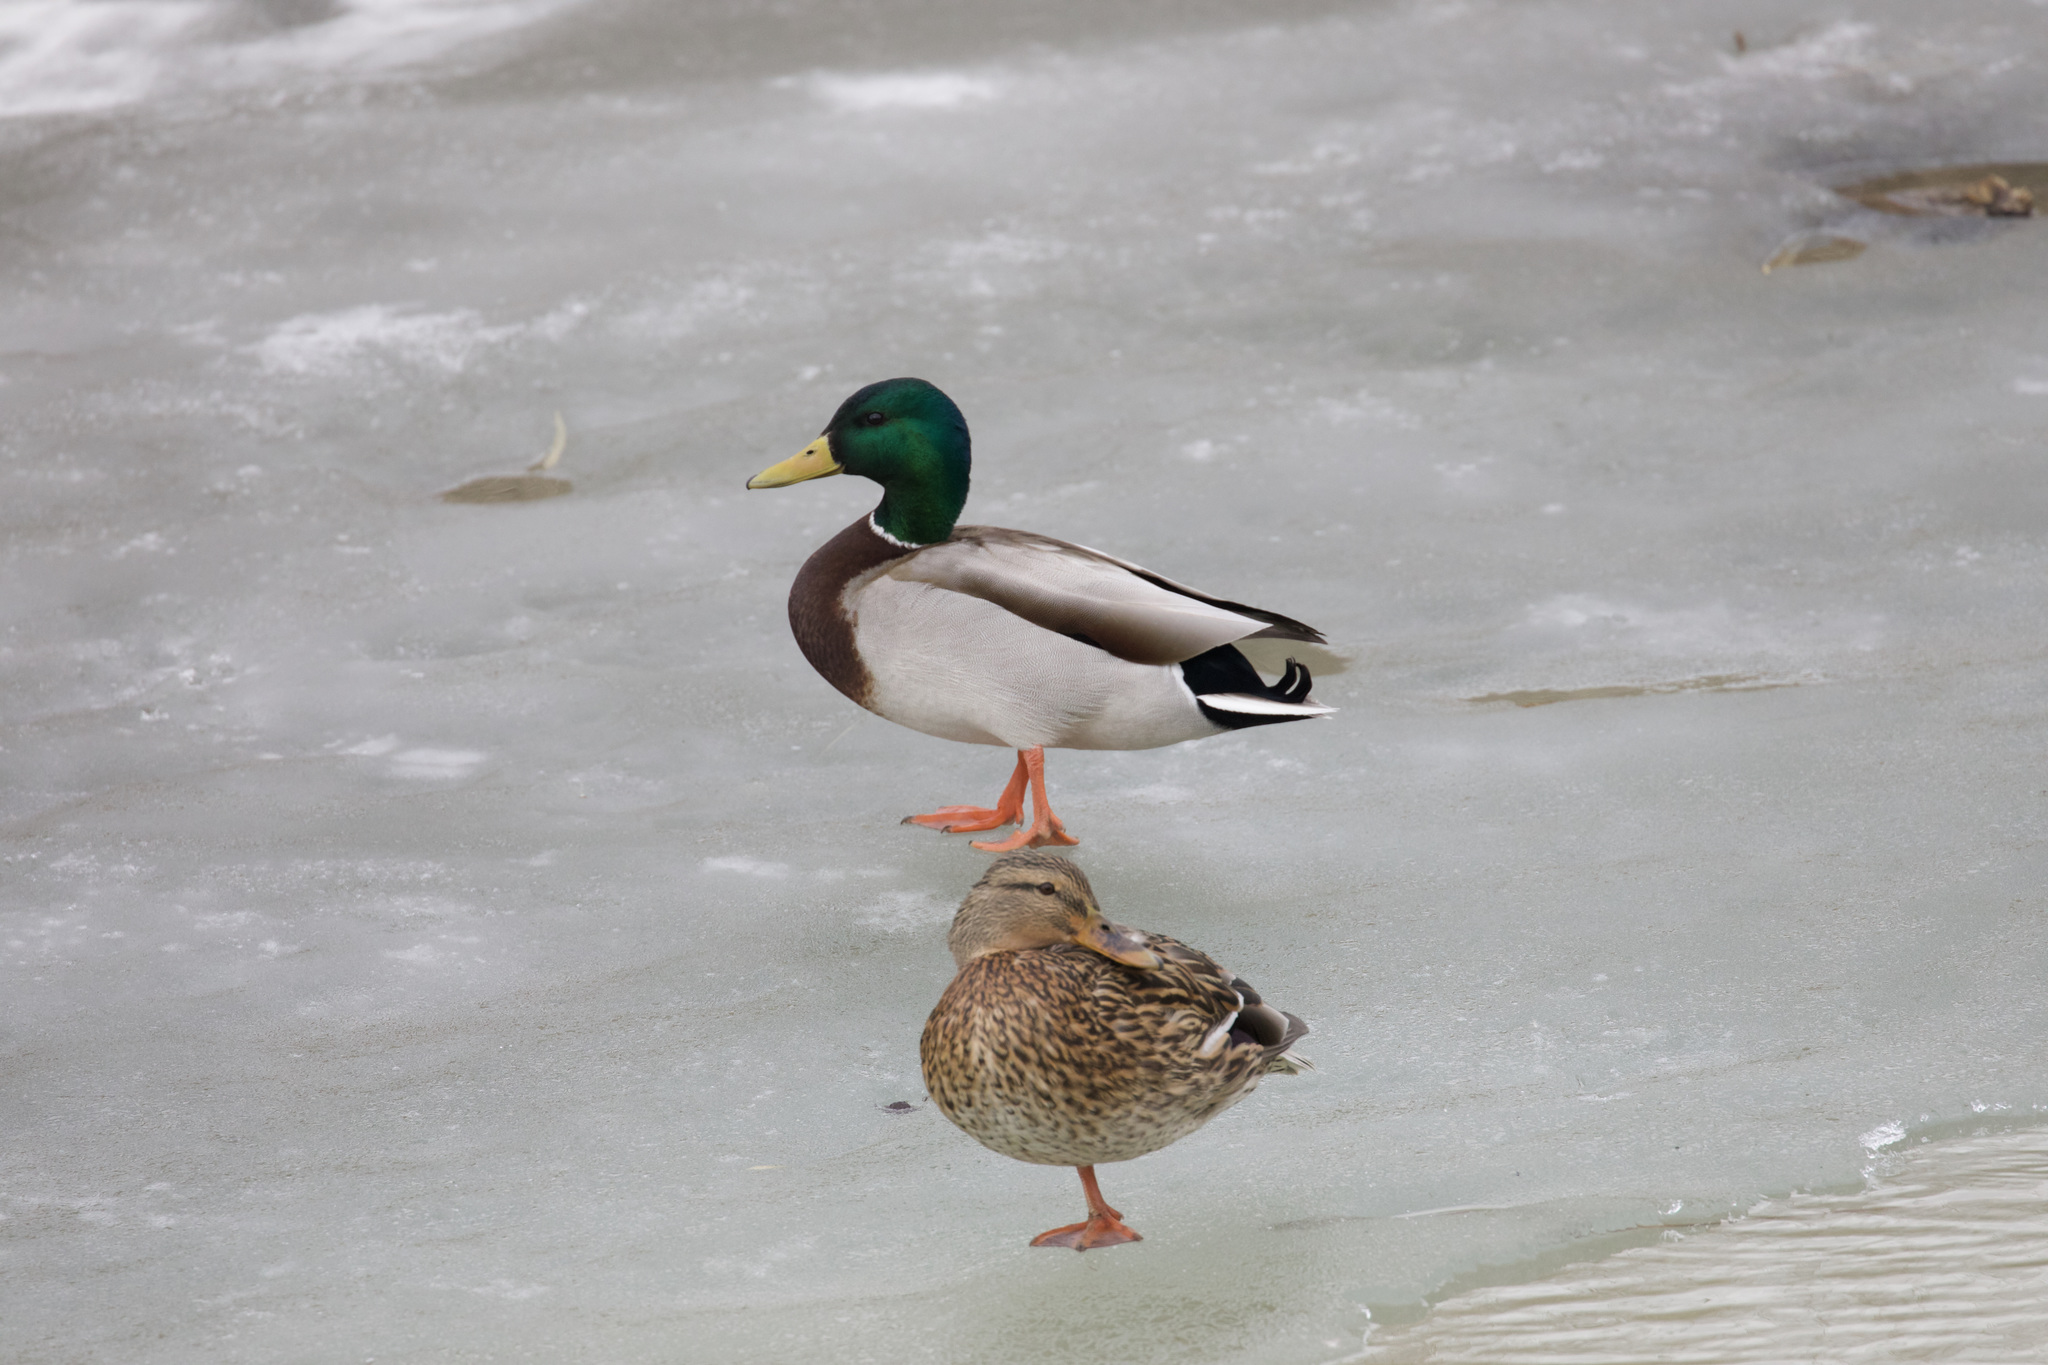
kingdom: Animalia
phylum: Chordata
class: Aves
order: Anseriformes
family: Anatidae
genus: Anas
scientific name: Anas platyrhynchos
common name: Mallard
